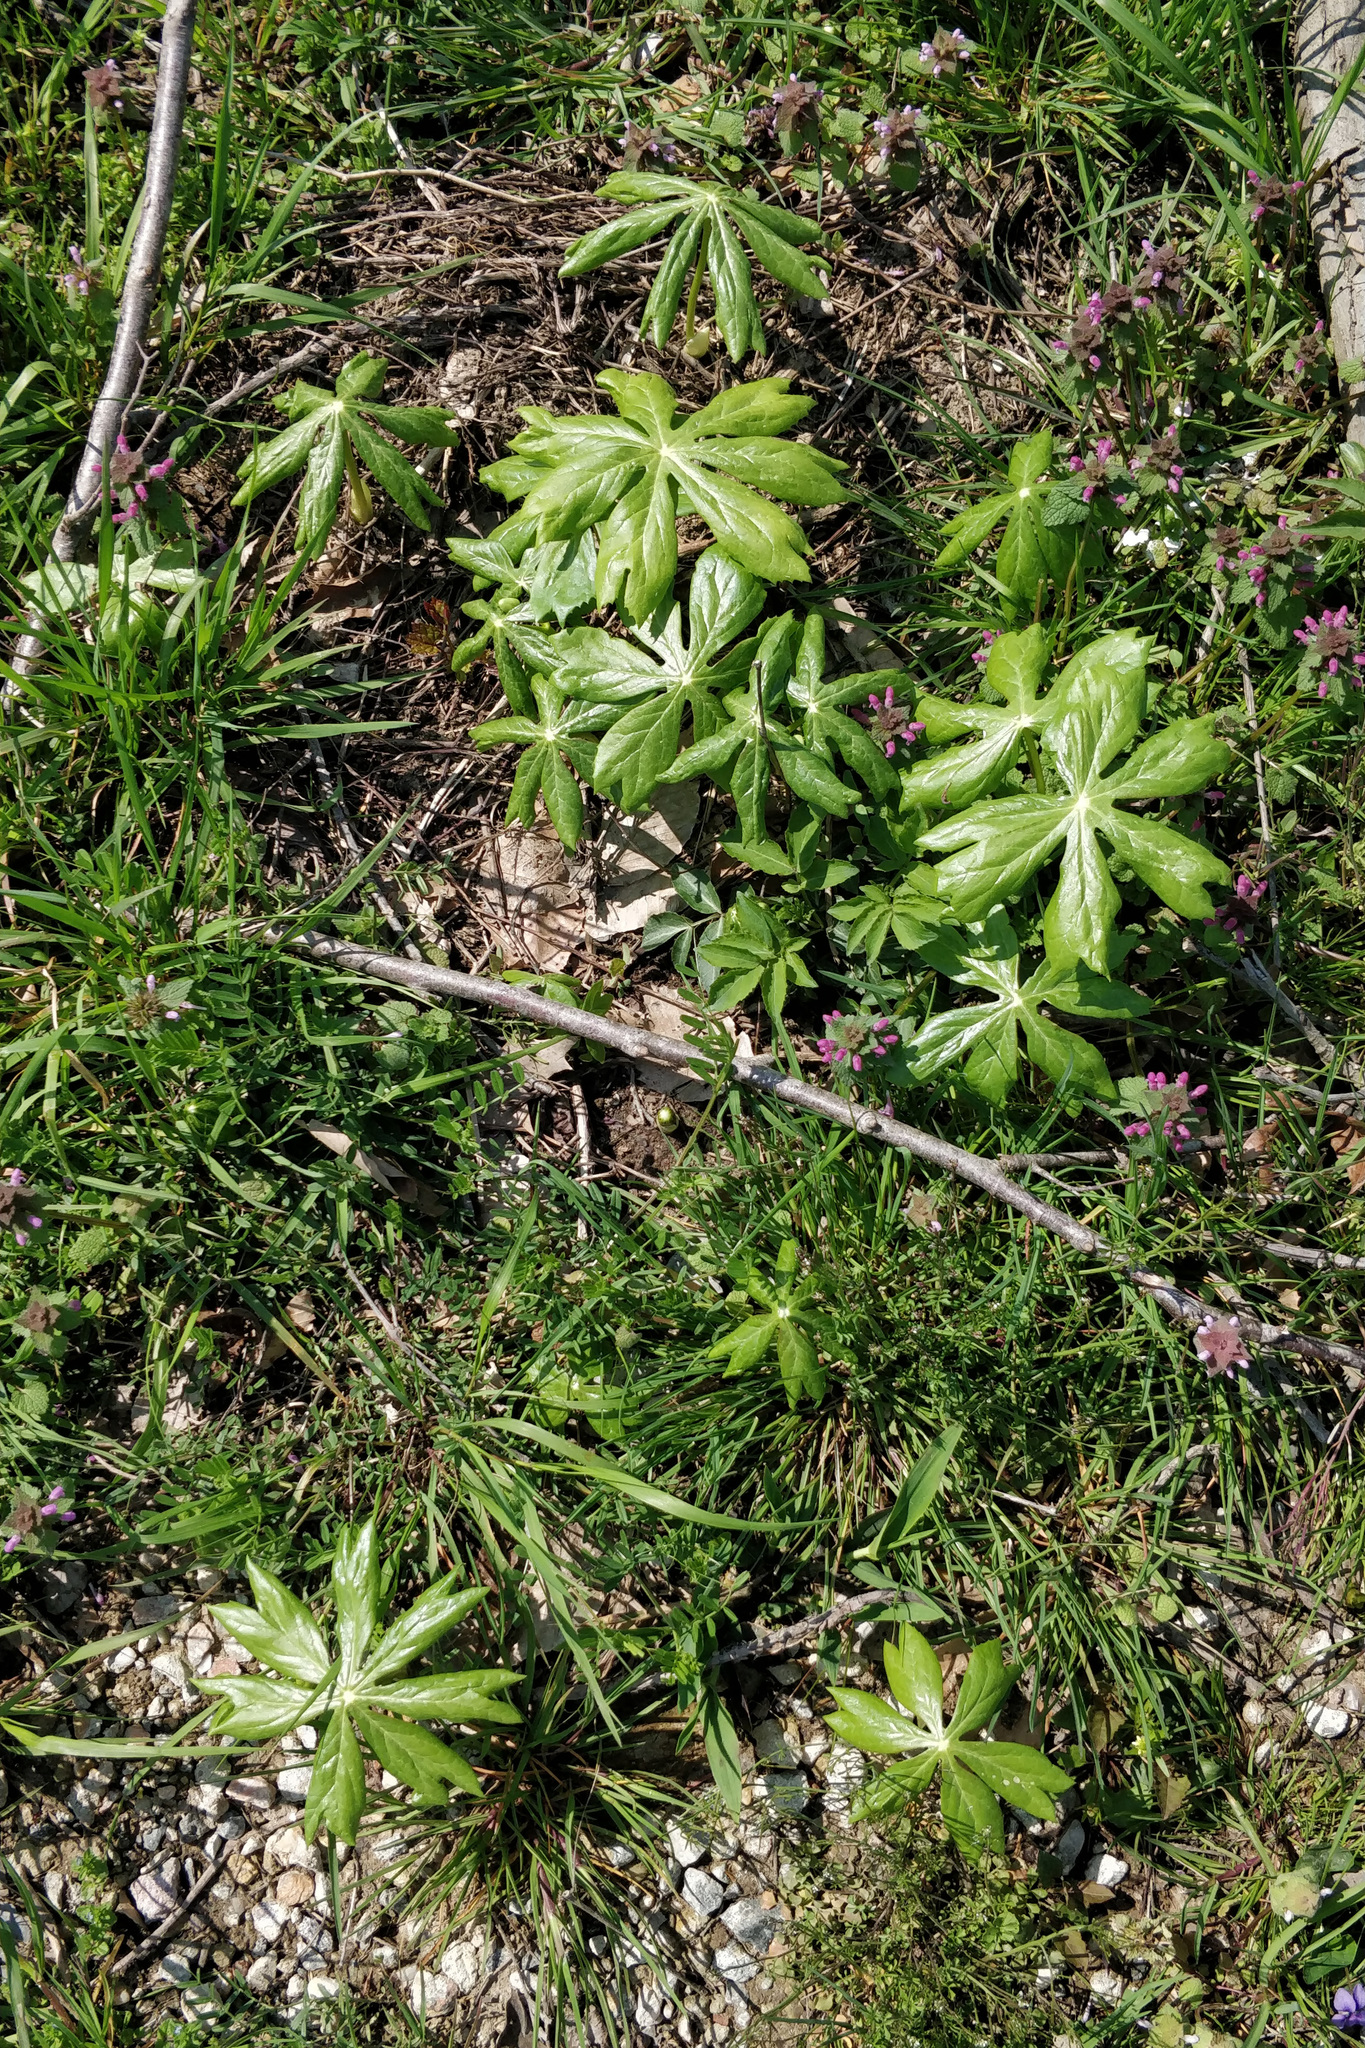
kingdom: Plantae
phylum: Tracheophyta
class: Magnoliopsida
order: Ranunculales
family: Berberidaceae
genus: Podophyllum
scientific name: Podophyllum peltatum
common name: Wild mandrake
